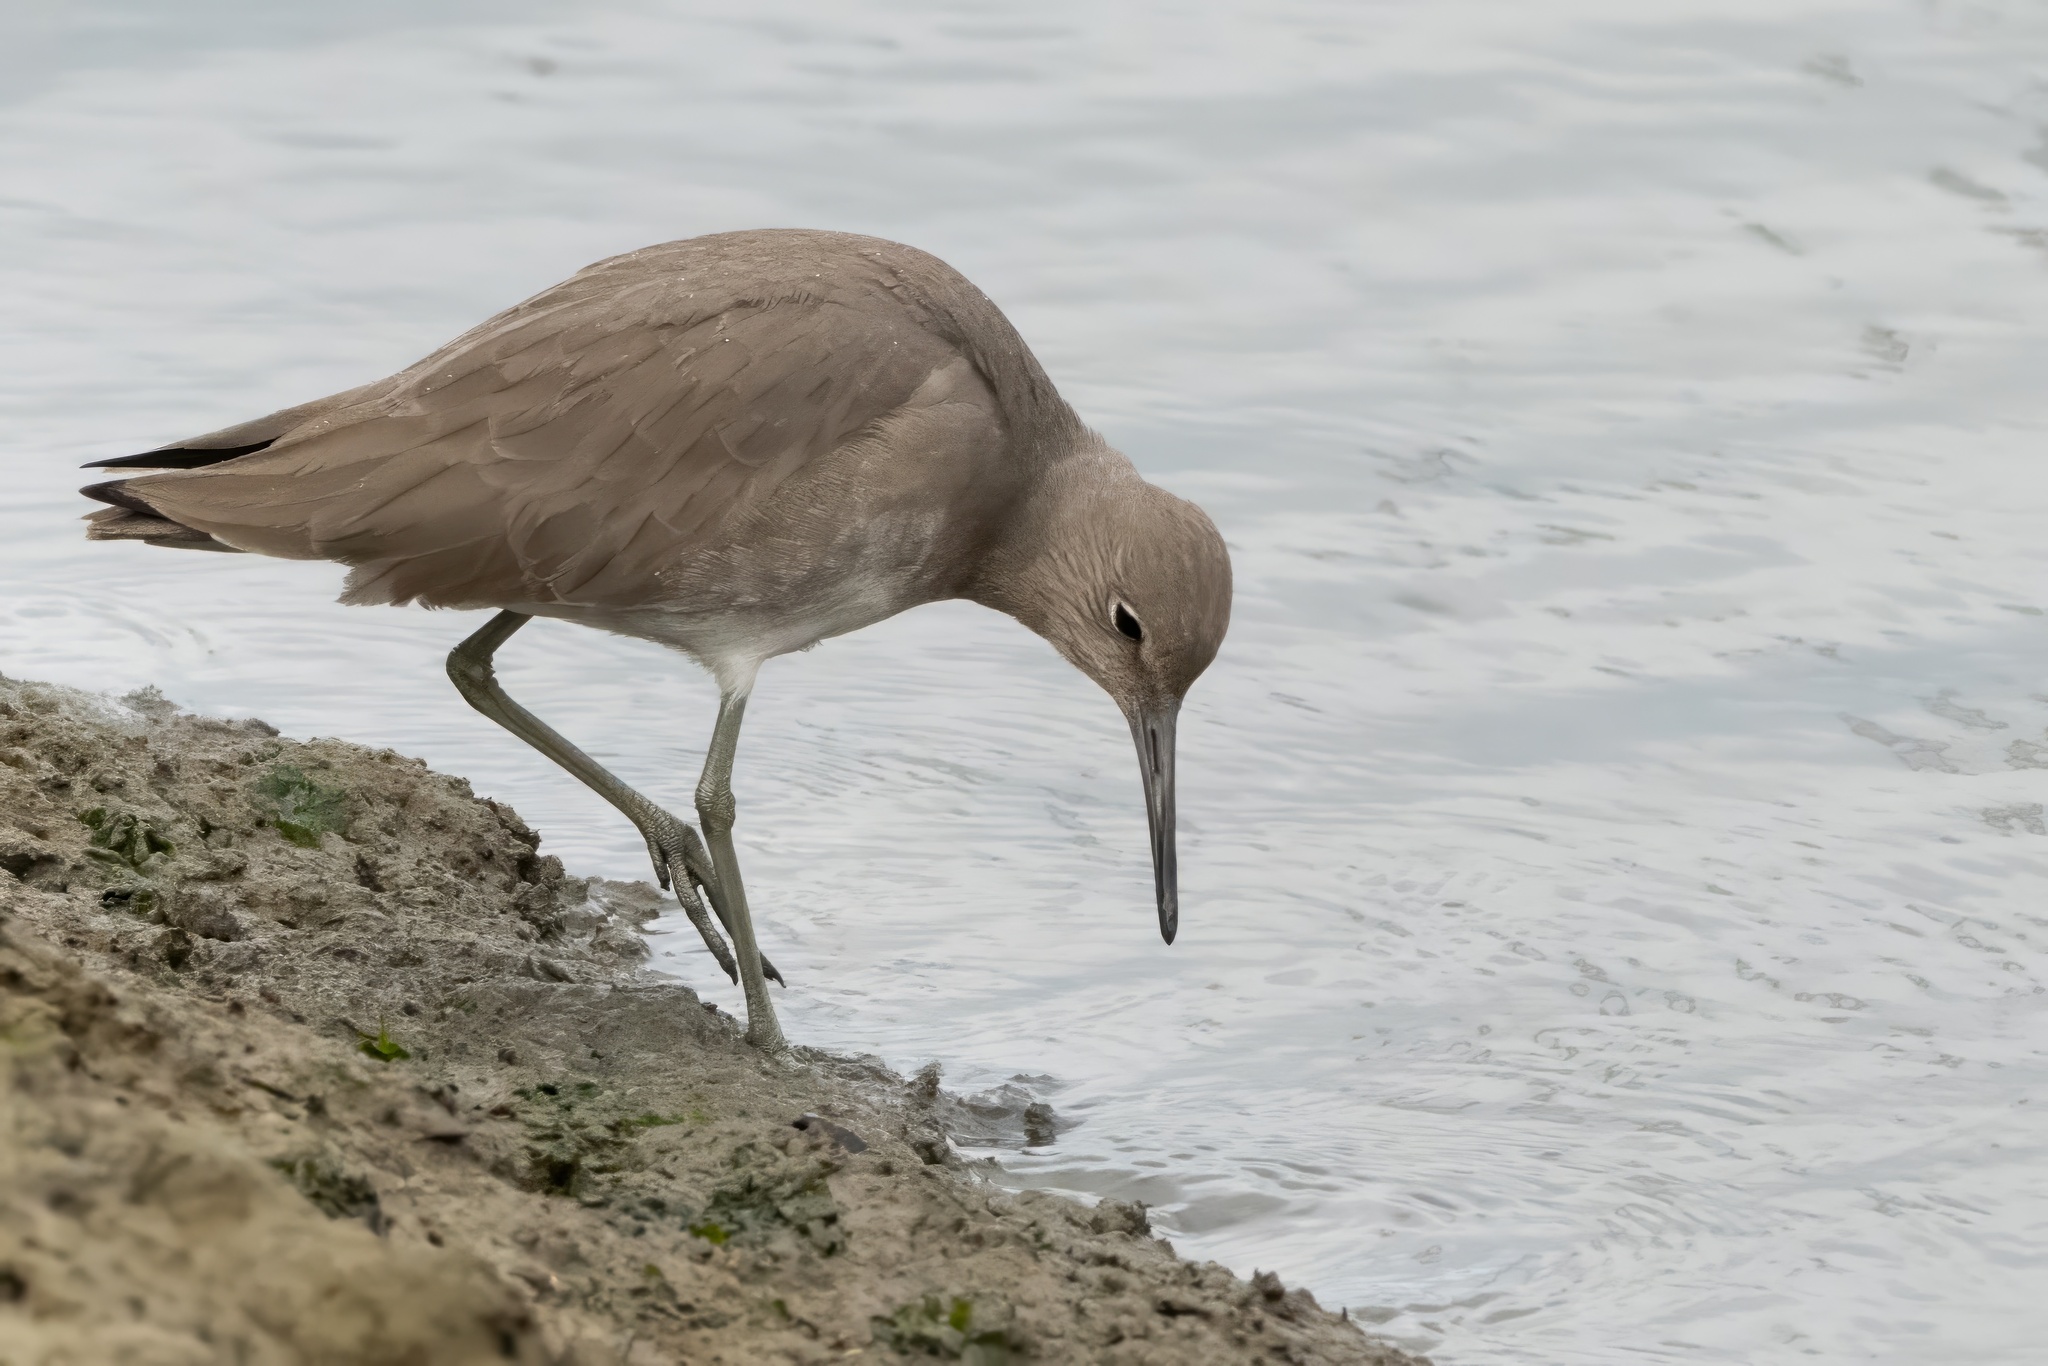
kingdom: Animalia
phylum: Chordata
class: Aves
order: Charadriiformes
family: Scolopacidae
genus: Tringa
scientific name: Tringa semipalmata
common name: Willet
